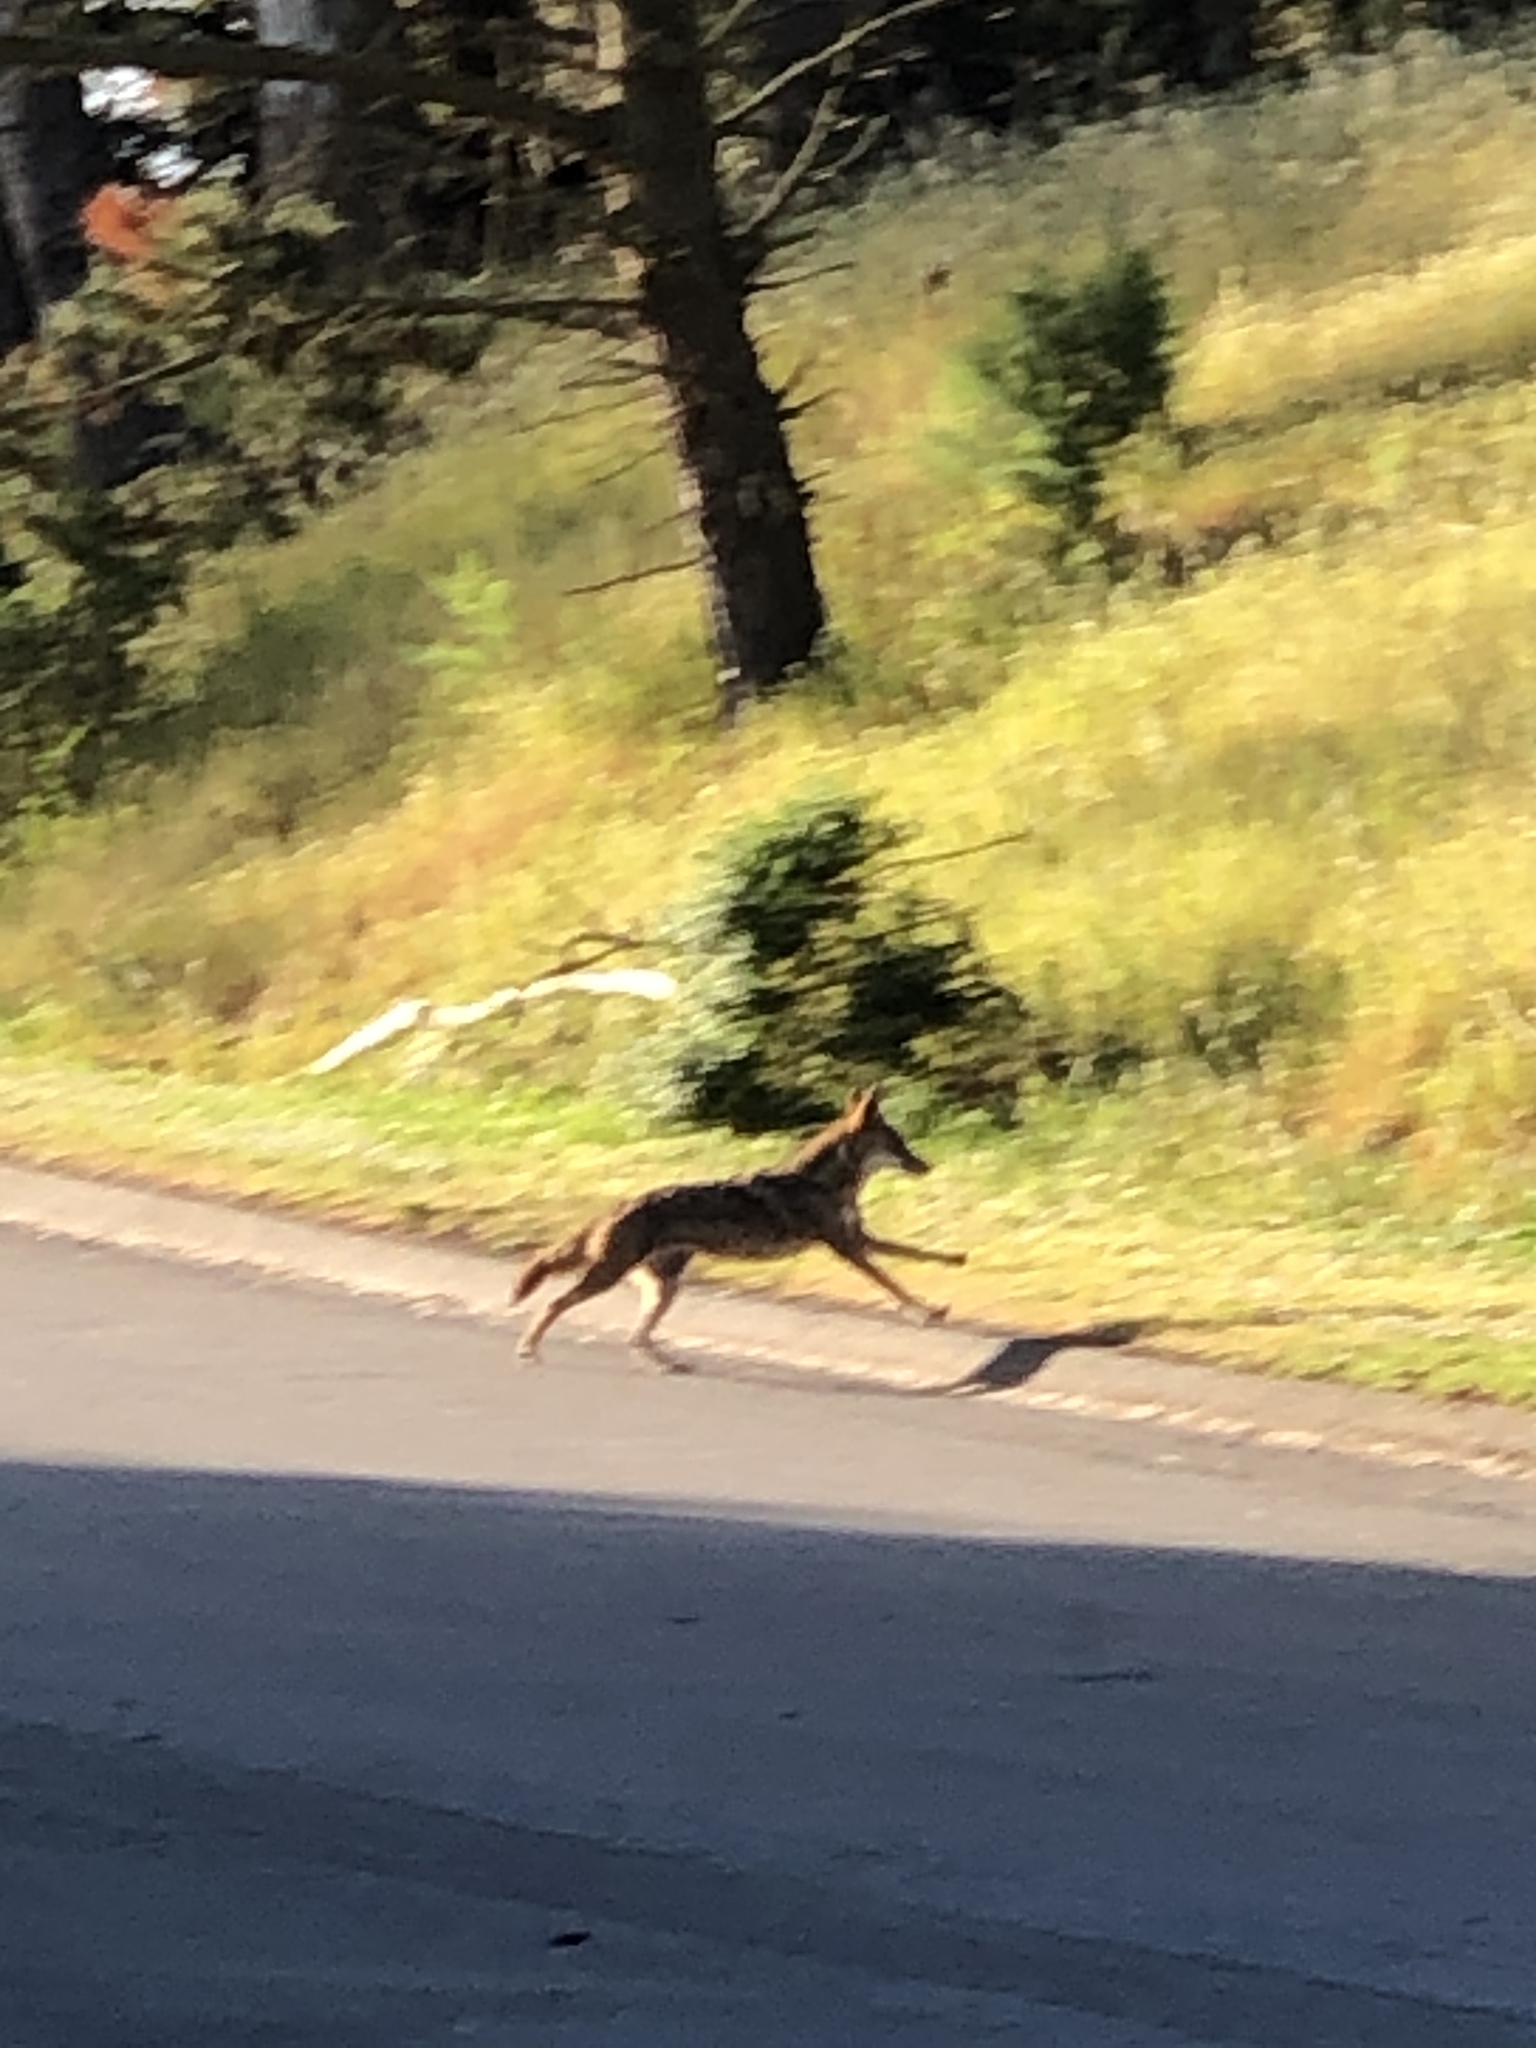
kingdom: Animalia
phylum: Chordata
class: Mammalia
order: Carnivora
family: Canidae
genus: Canis
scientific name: Canis latrans
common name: Coyote
